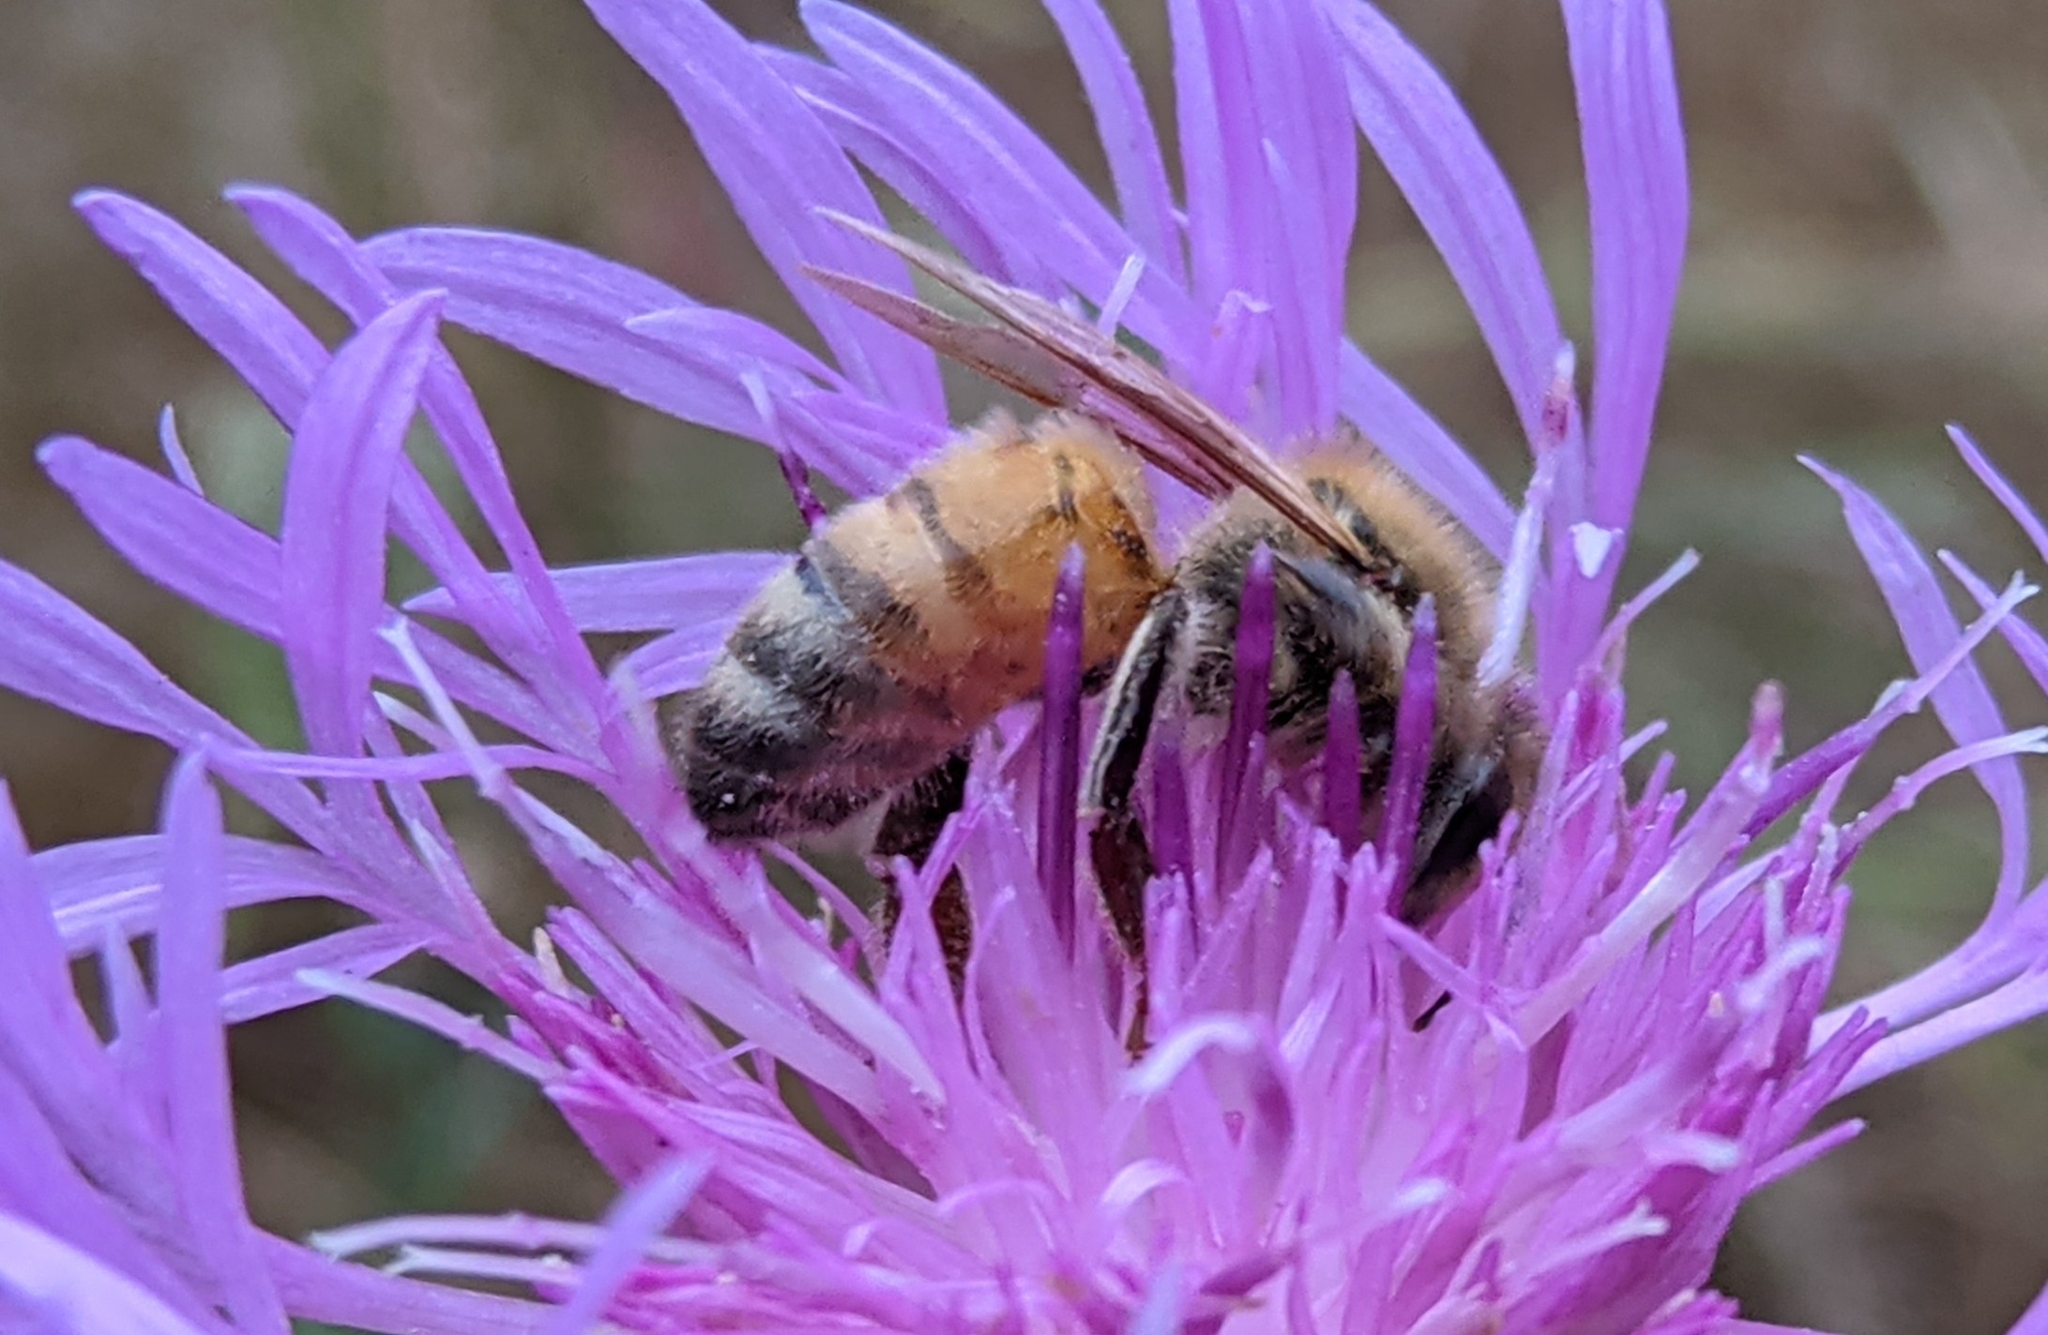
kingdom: Animalia
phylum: Arthropoda
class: Insecta
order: Hymenoptera
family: Apidae
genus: Apis
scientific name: Apis mellifera
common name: Honey bee
